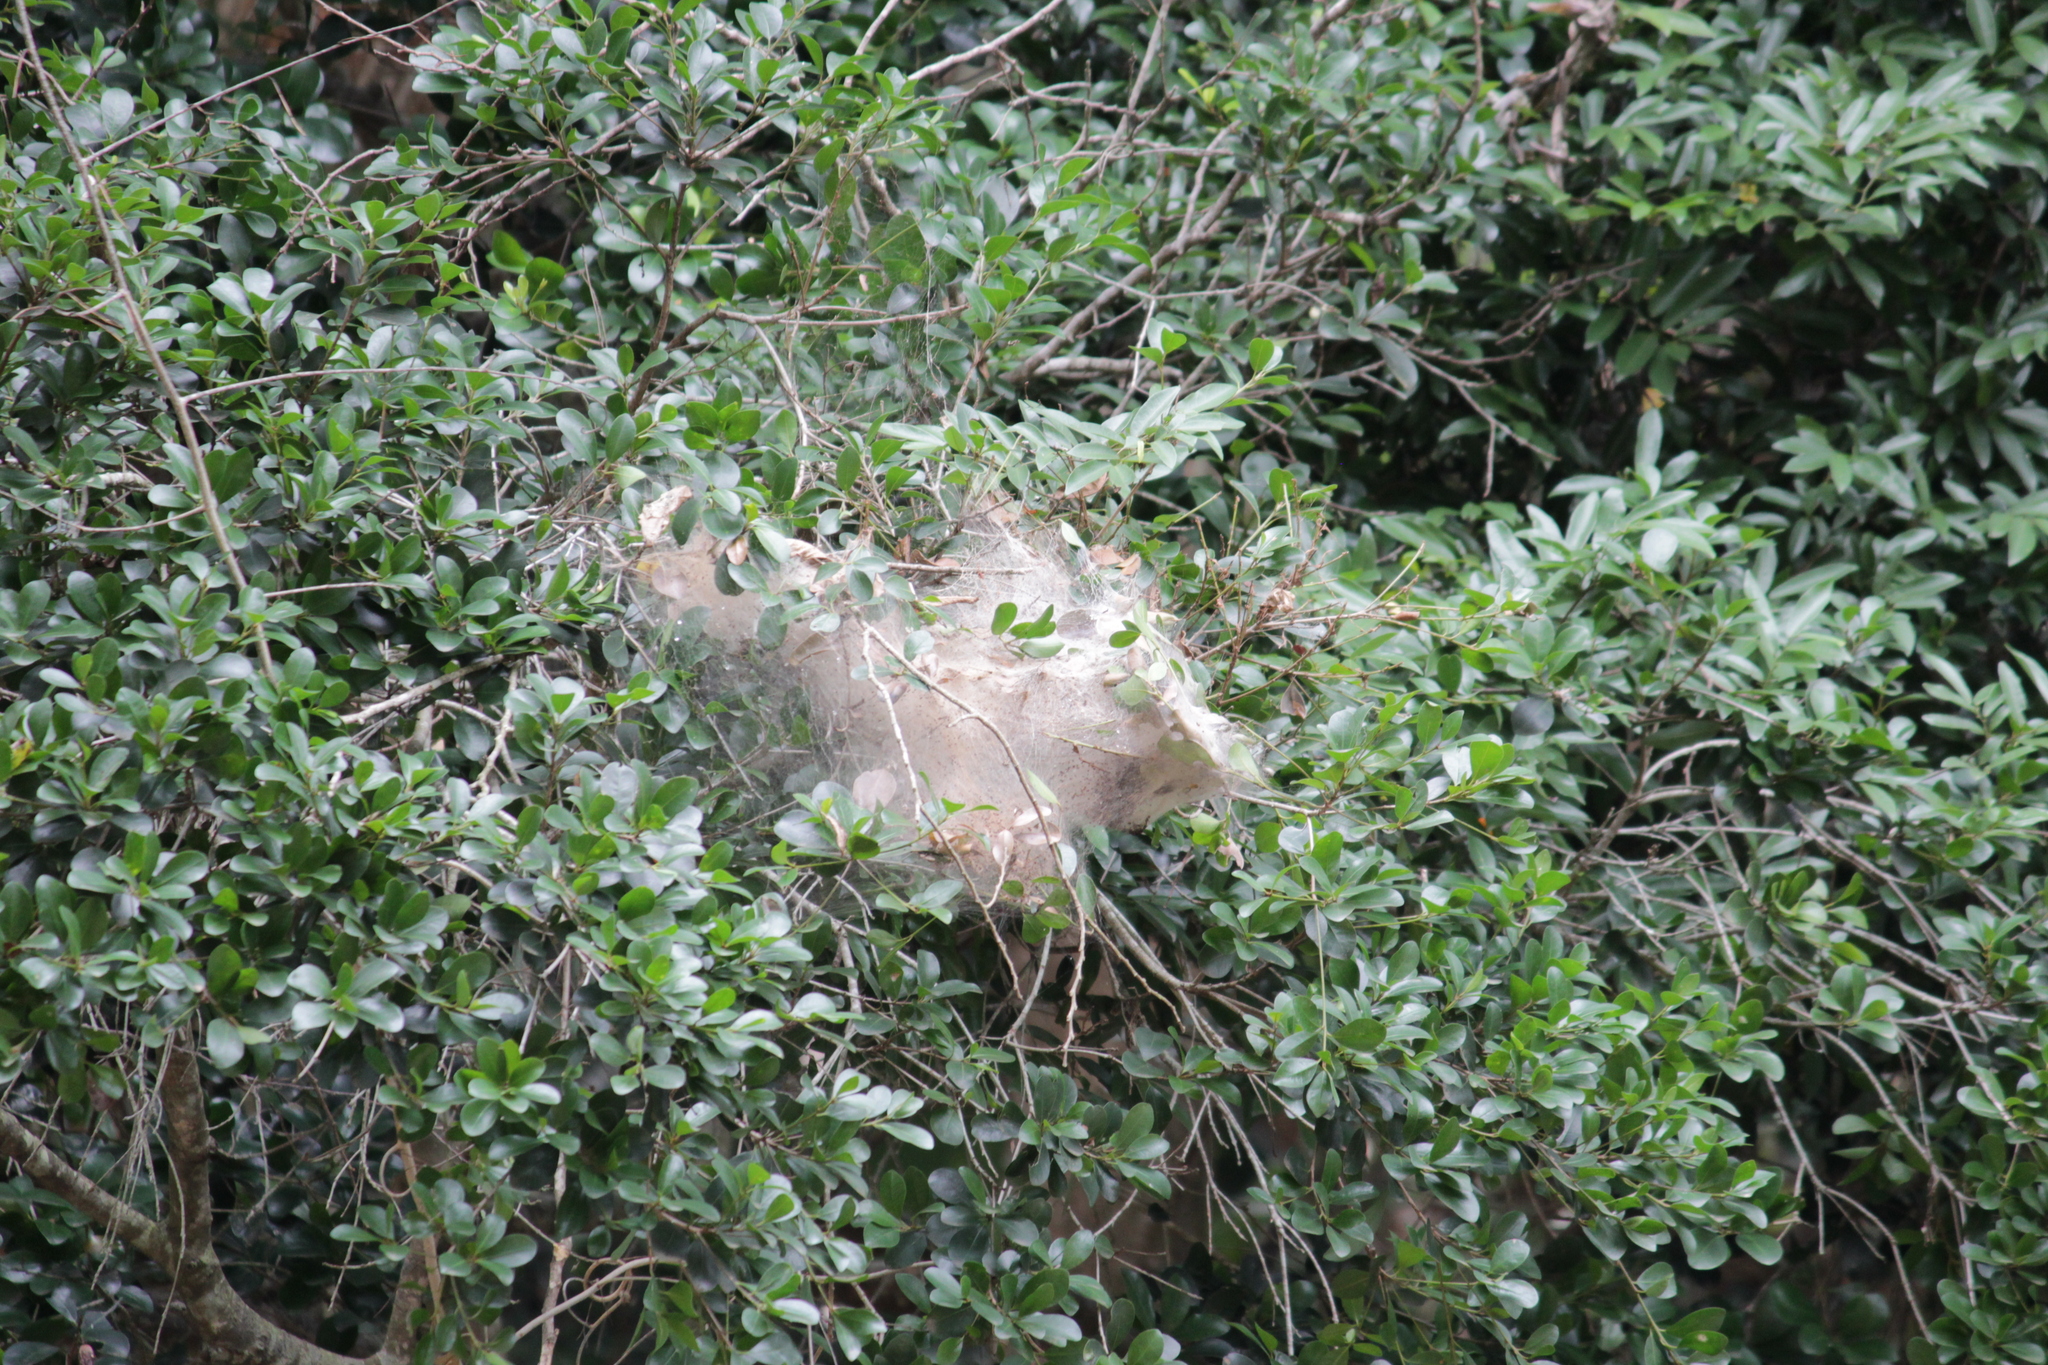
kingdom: Animalia
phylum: Arthropoda
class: Insecta
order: Lepidoptera
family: Pyralidae
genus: Zitha
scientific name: Zitha carnicolor
